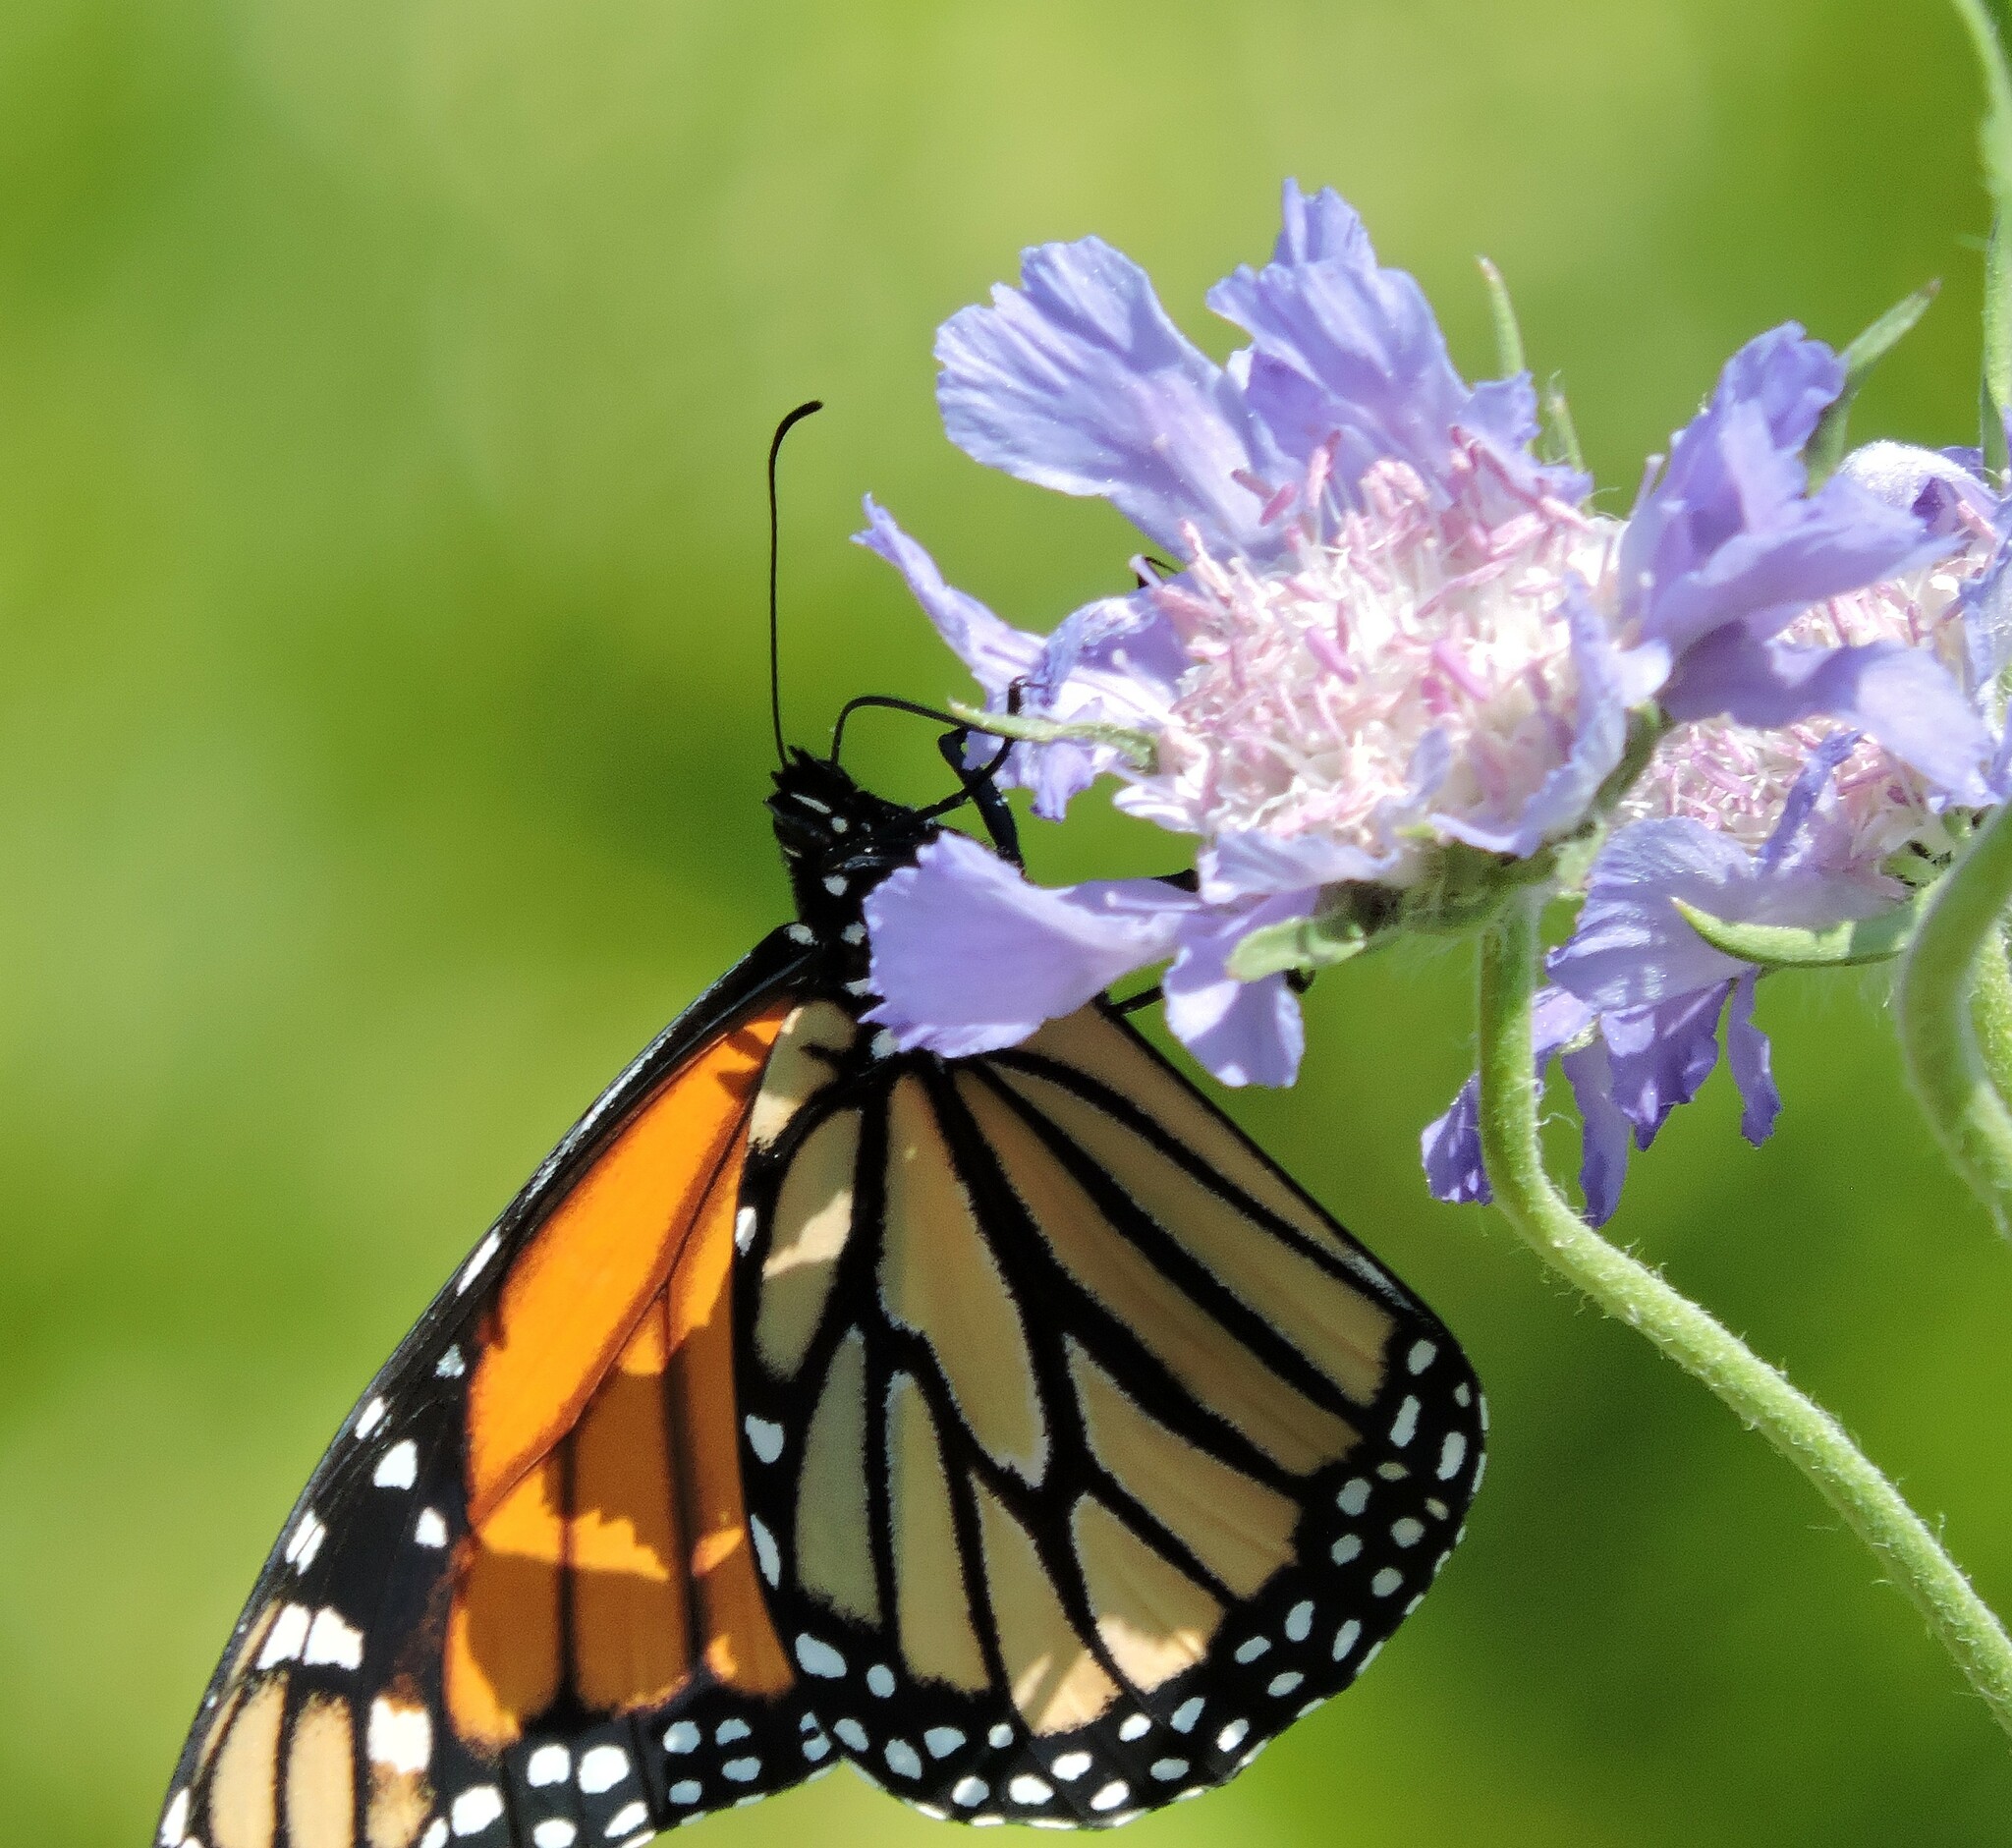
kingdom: Animalia
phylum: Arthropoda
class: Insecta
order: Lepidoptera
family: Nymphalidae
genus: Danaus
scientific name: Danaus plexippus
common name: Monarch
